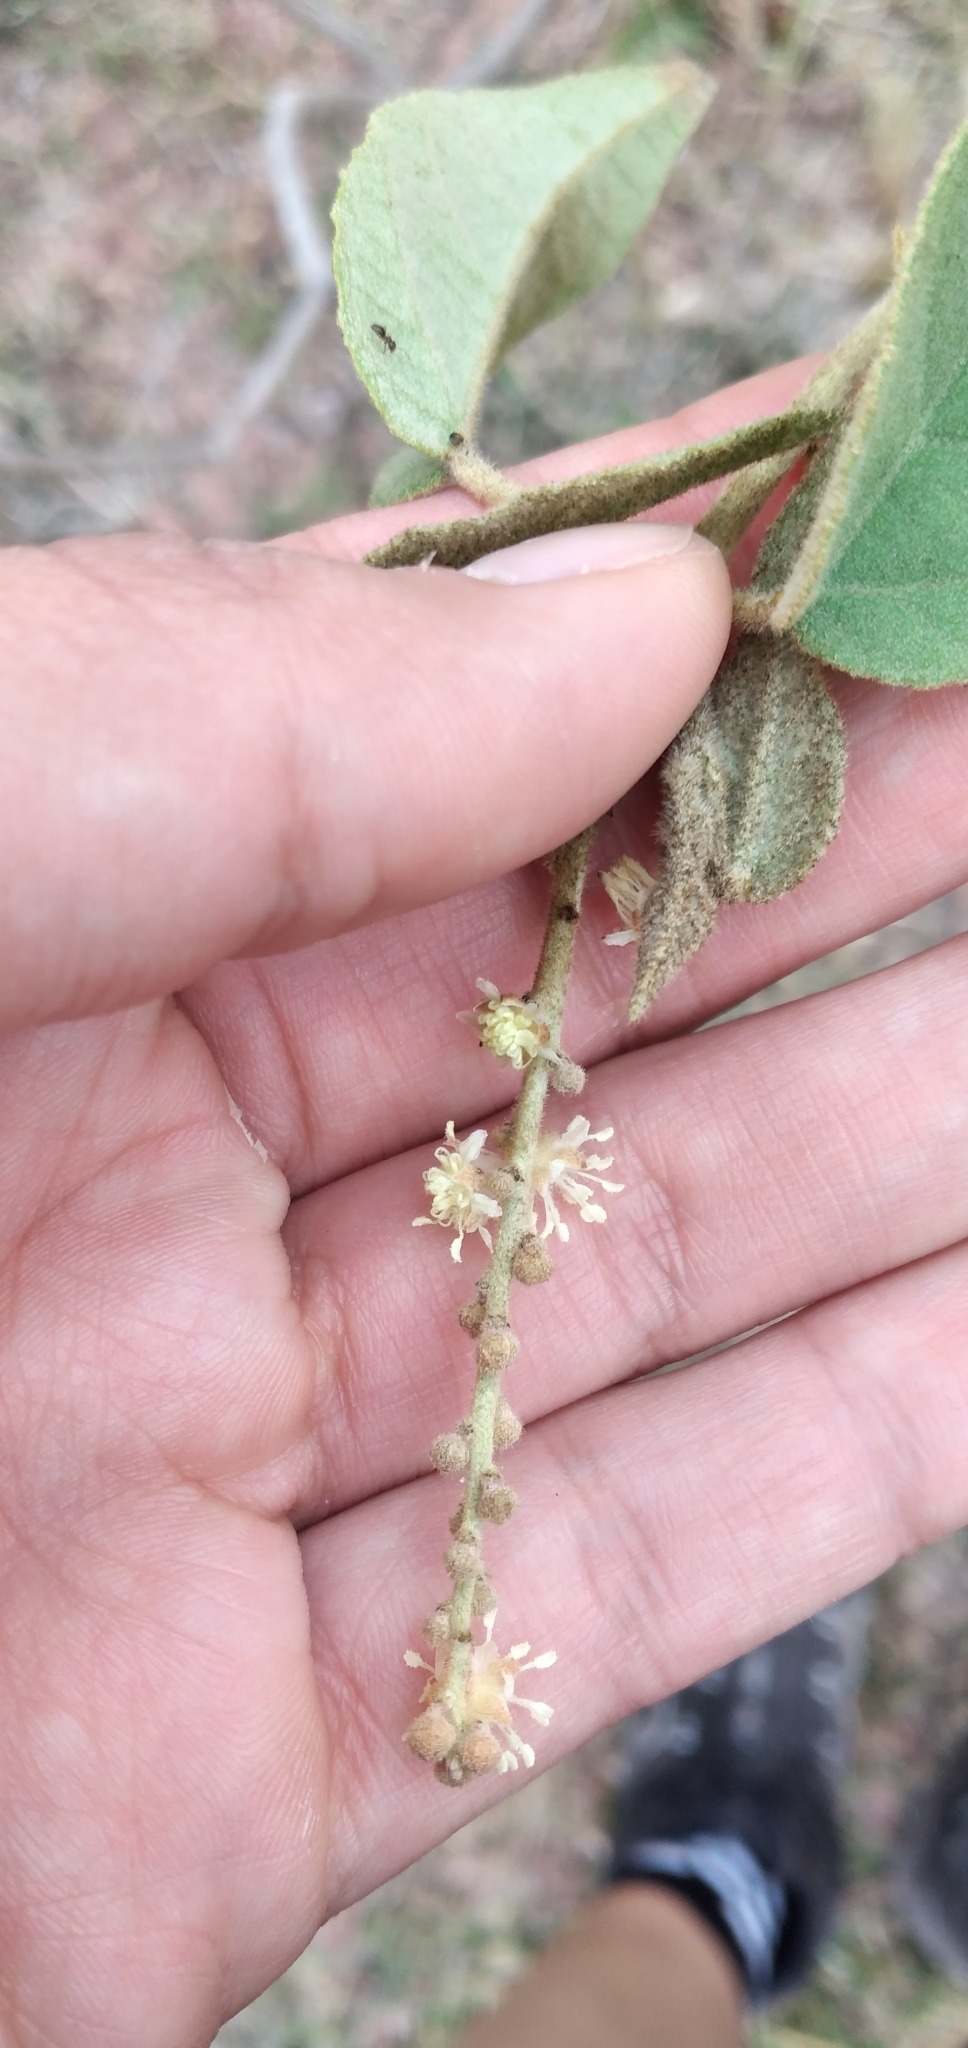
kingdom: Plantae
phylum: Tracheophyta
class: Magnoliopsida
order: Malpighiales
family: Euphorbiaceae
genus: Croton
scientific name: Croton lachnostachyus
